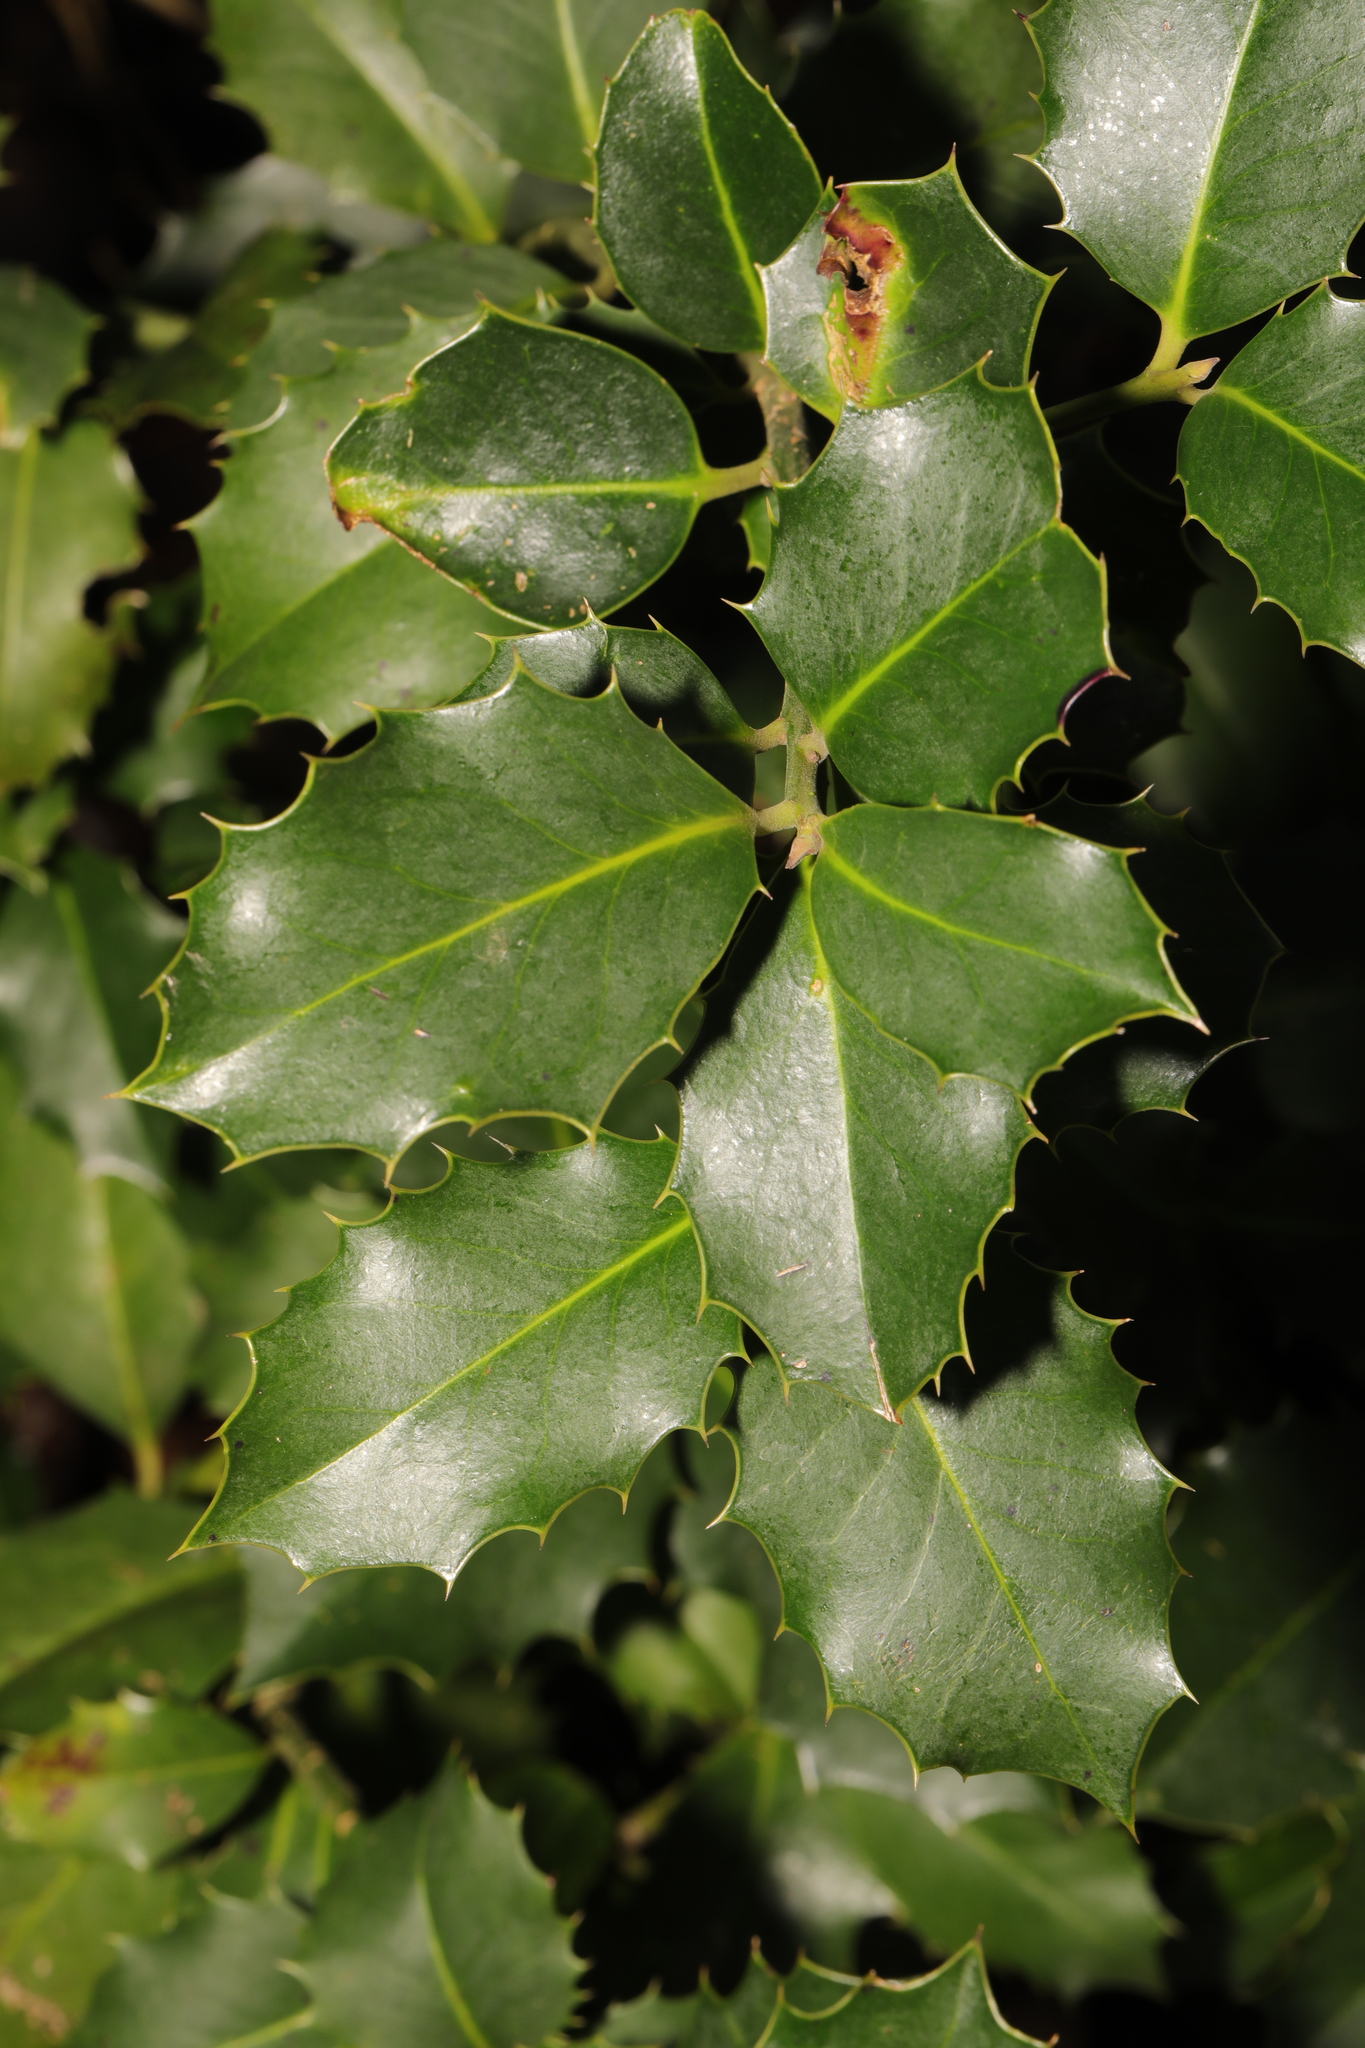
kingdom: Plantae
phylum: Tracheophyta
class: Magnoliopsida
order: Aquifoliales
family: Aquifoliaceae
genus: Ilex
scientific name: Ilex aquifolium
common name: English holly
